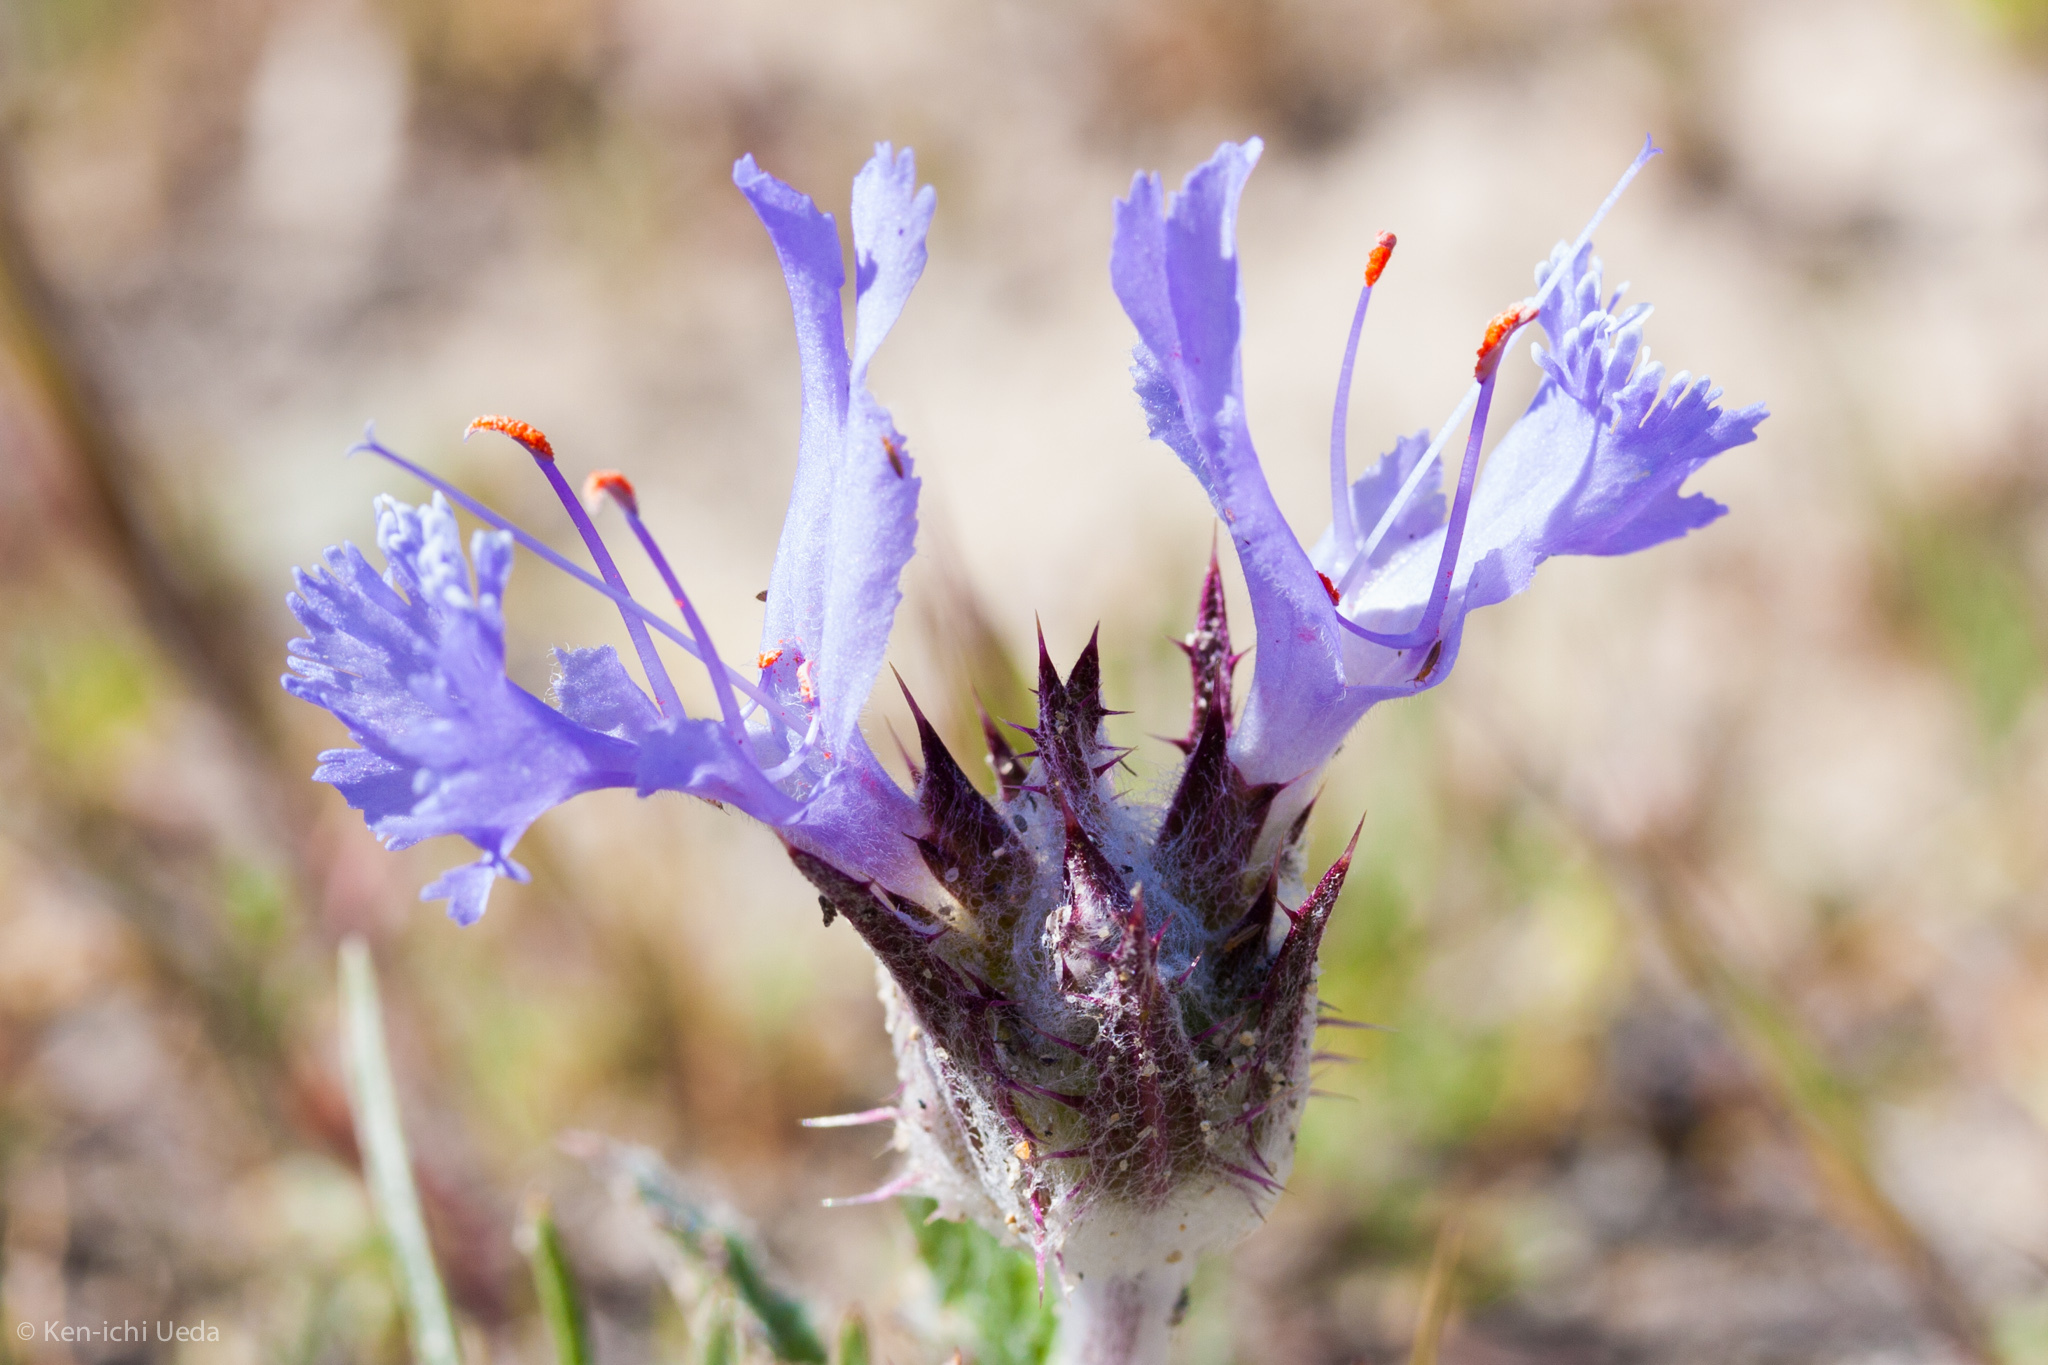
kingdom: Plantae
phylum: Tracheophyta
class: Magnoliopsida
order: Lamiales
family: Lamiaceae
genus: Salvia
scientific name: Salvia carduacea
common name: Thistle sage
